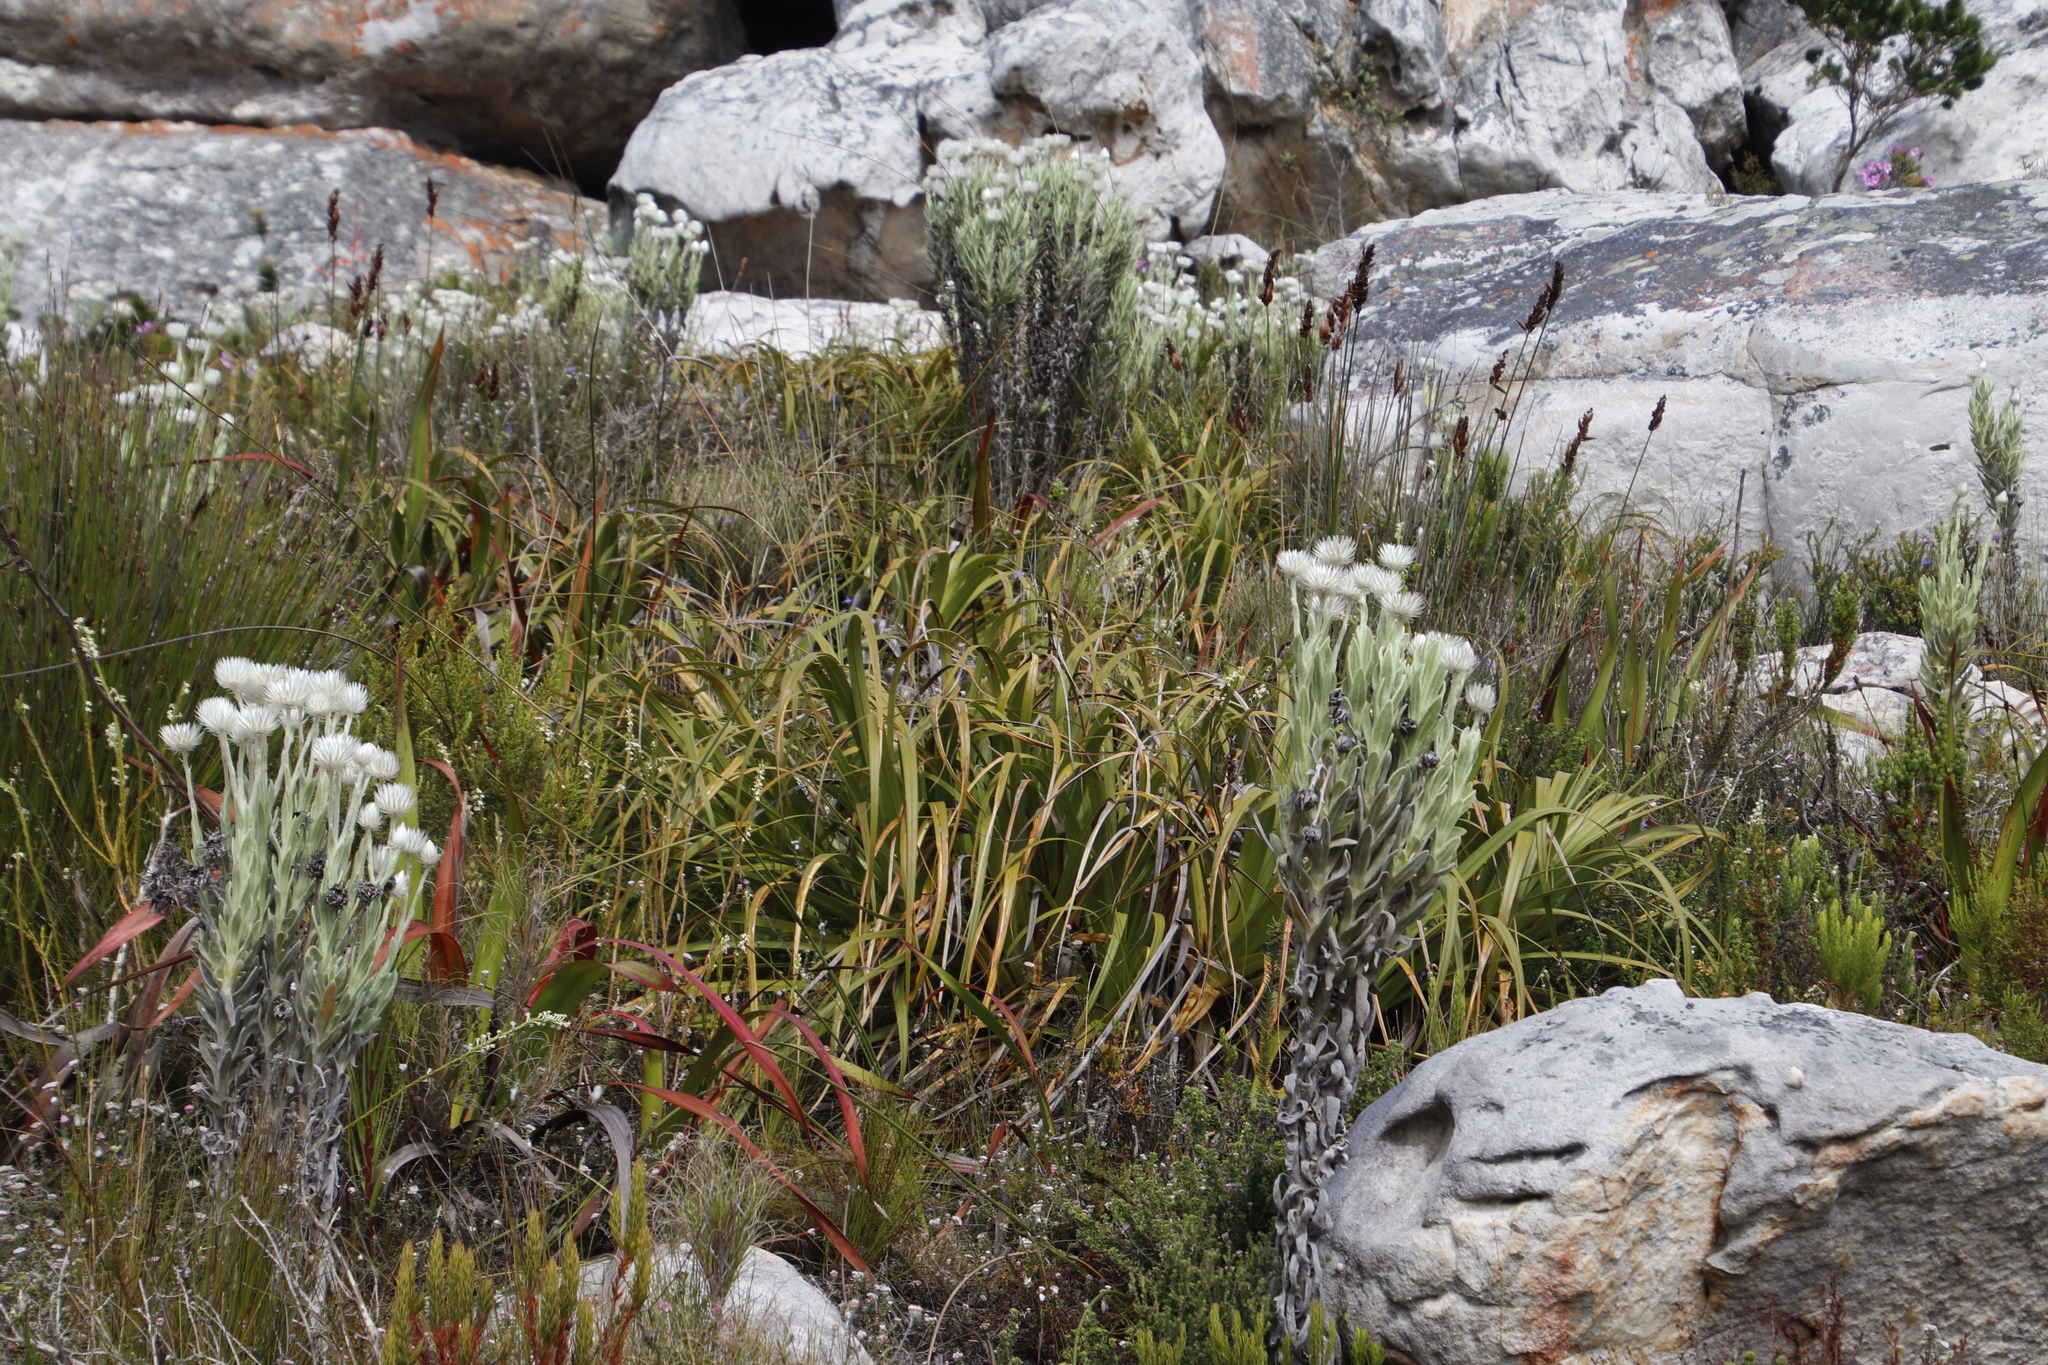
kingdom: Plantae
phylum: Tracheophyta
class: Liliopsida
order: Poales
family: Cyperaceae
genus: Tetraria
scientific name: Tetraria thermalis
